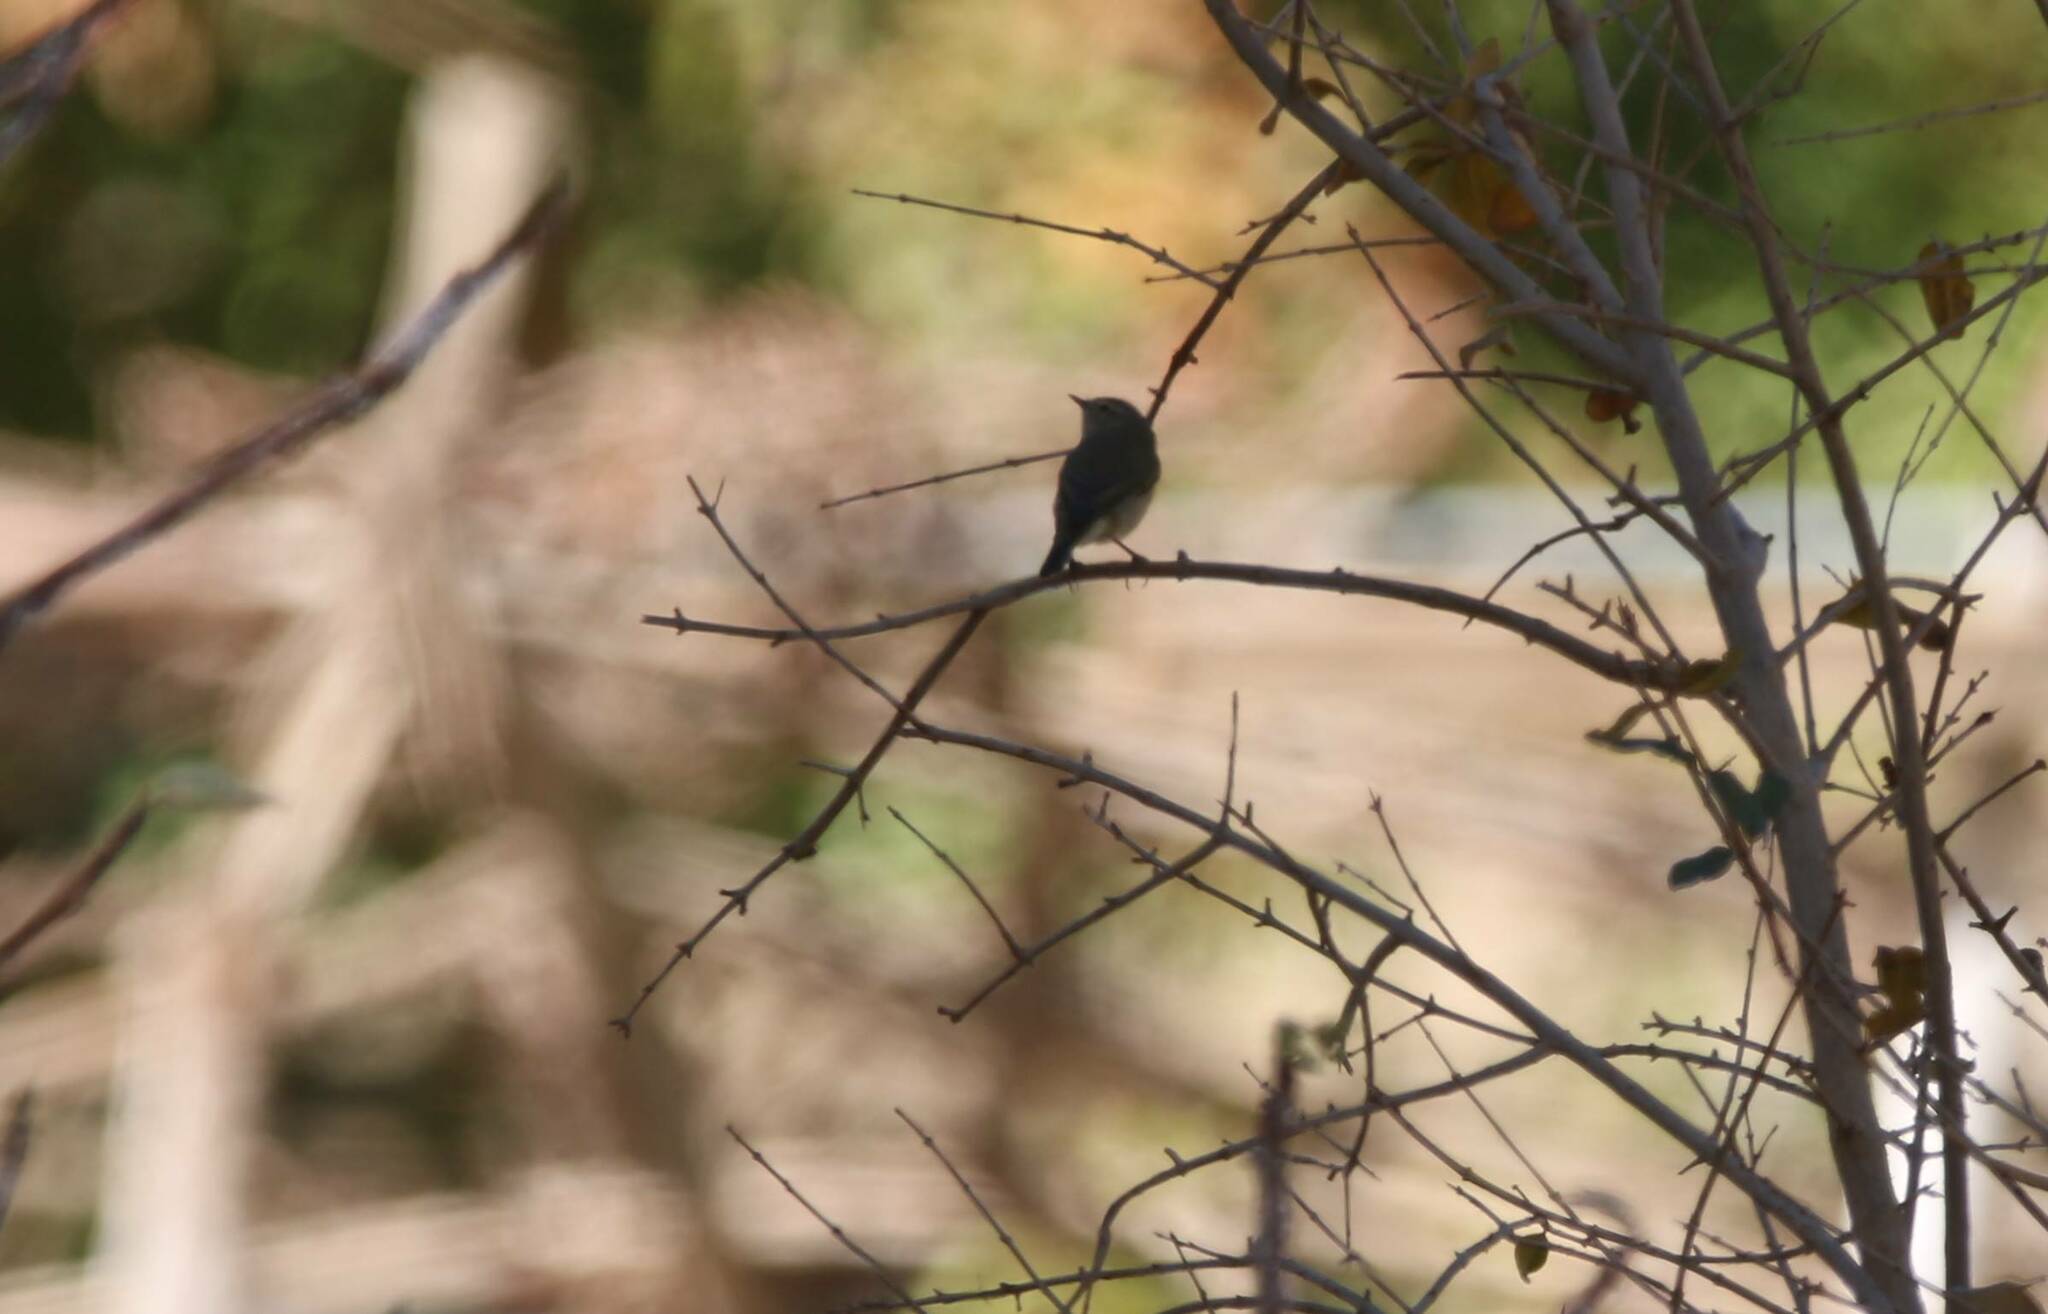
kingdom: Animalia
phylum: Chordata
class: Aves
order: Passeriformes
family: Phylloscopidae
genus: Phylloscopus
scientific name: Phylloscopus collybita
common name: Common chiffchaff
